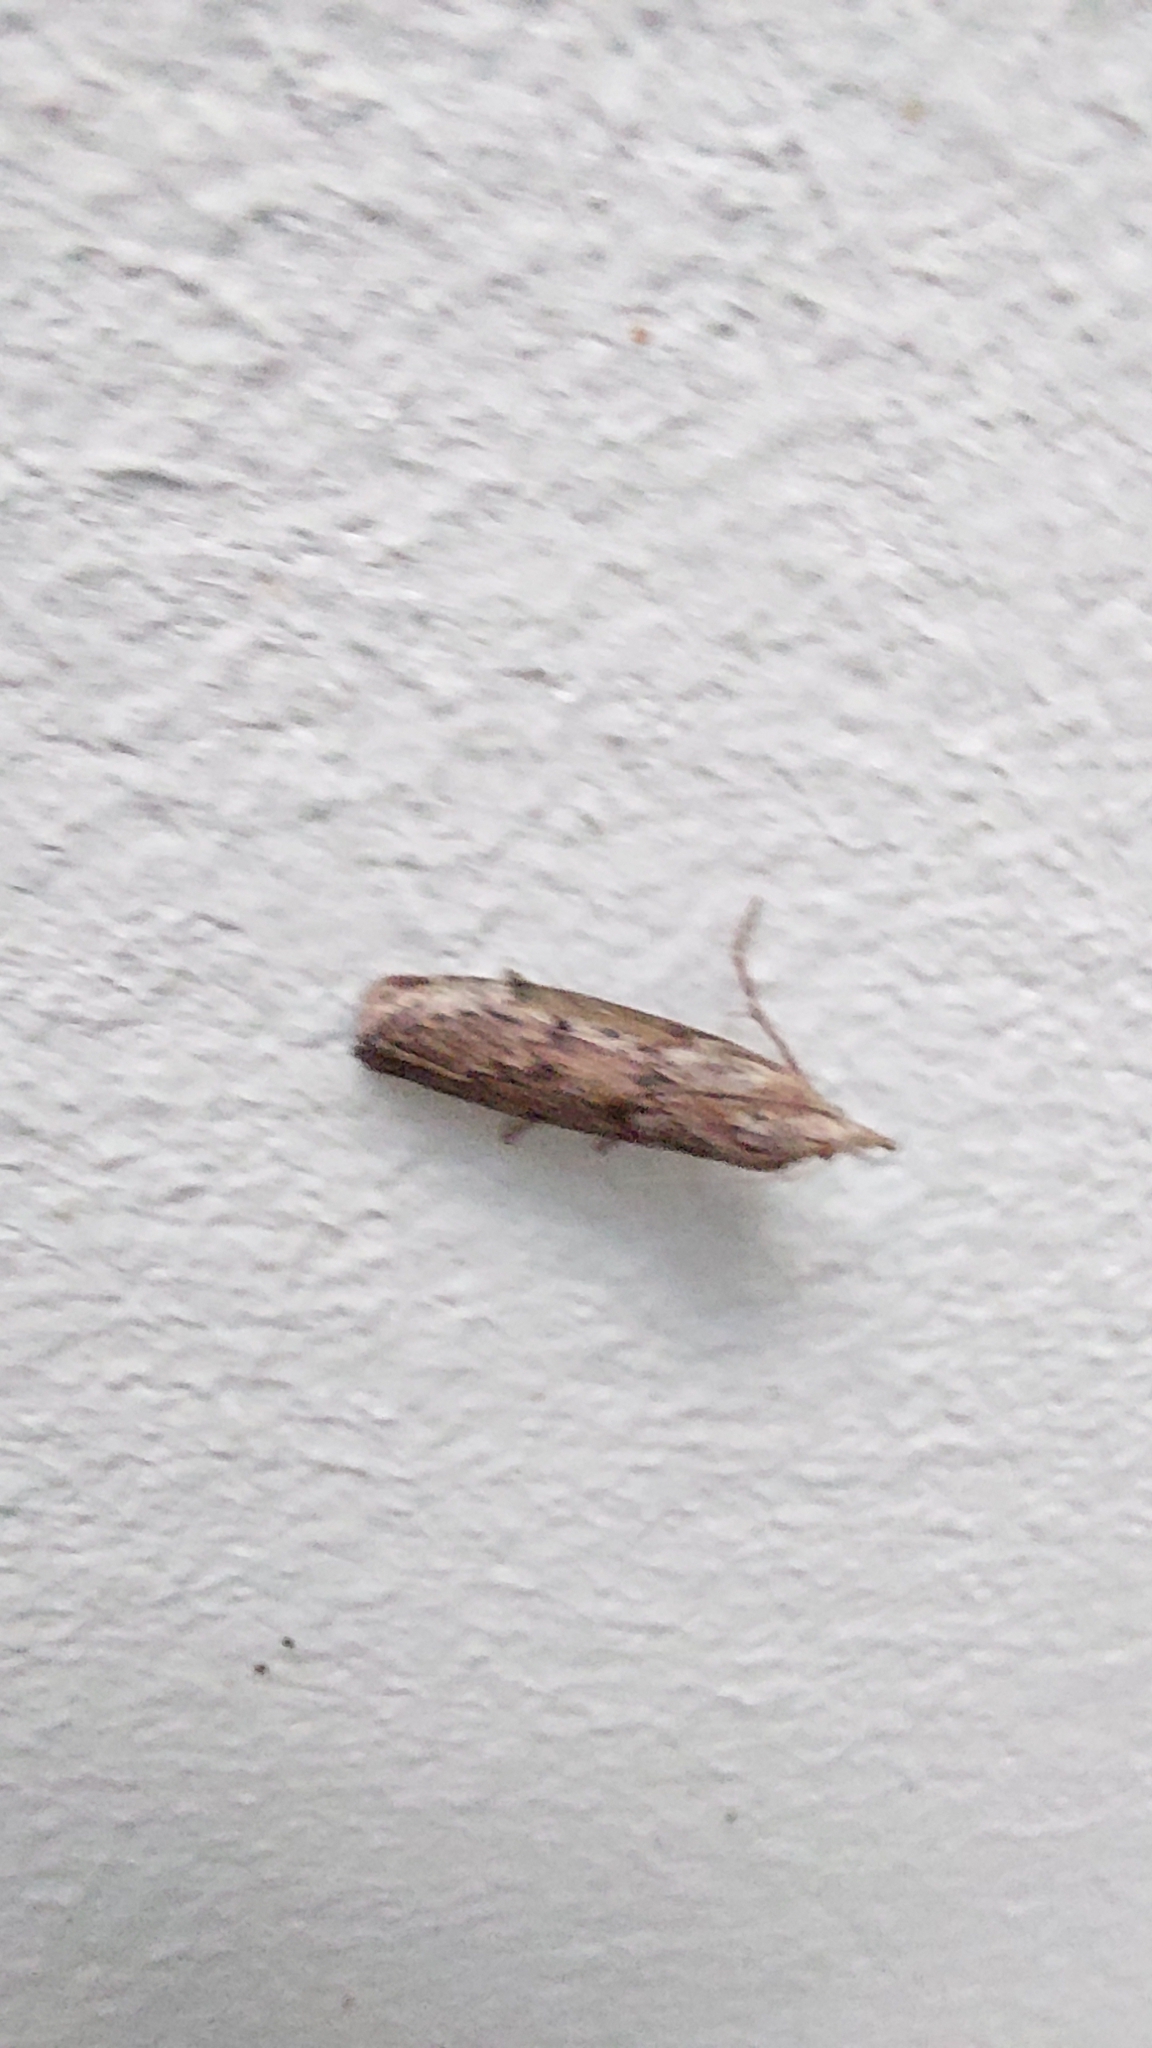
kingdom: Animalia
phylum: Arthropoda
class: Insecta
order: Lepidoptera
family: Pyralidae
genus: Aphomia
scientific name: Aphomia sociella
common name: Bee moth
